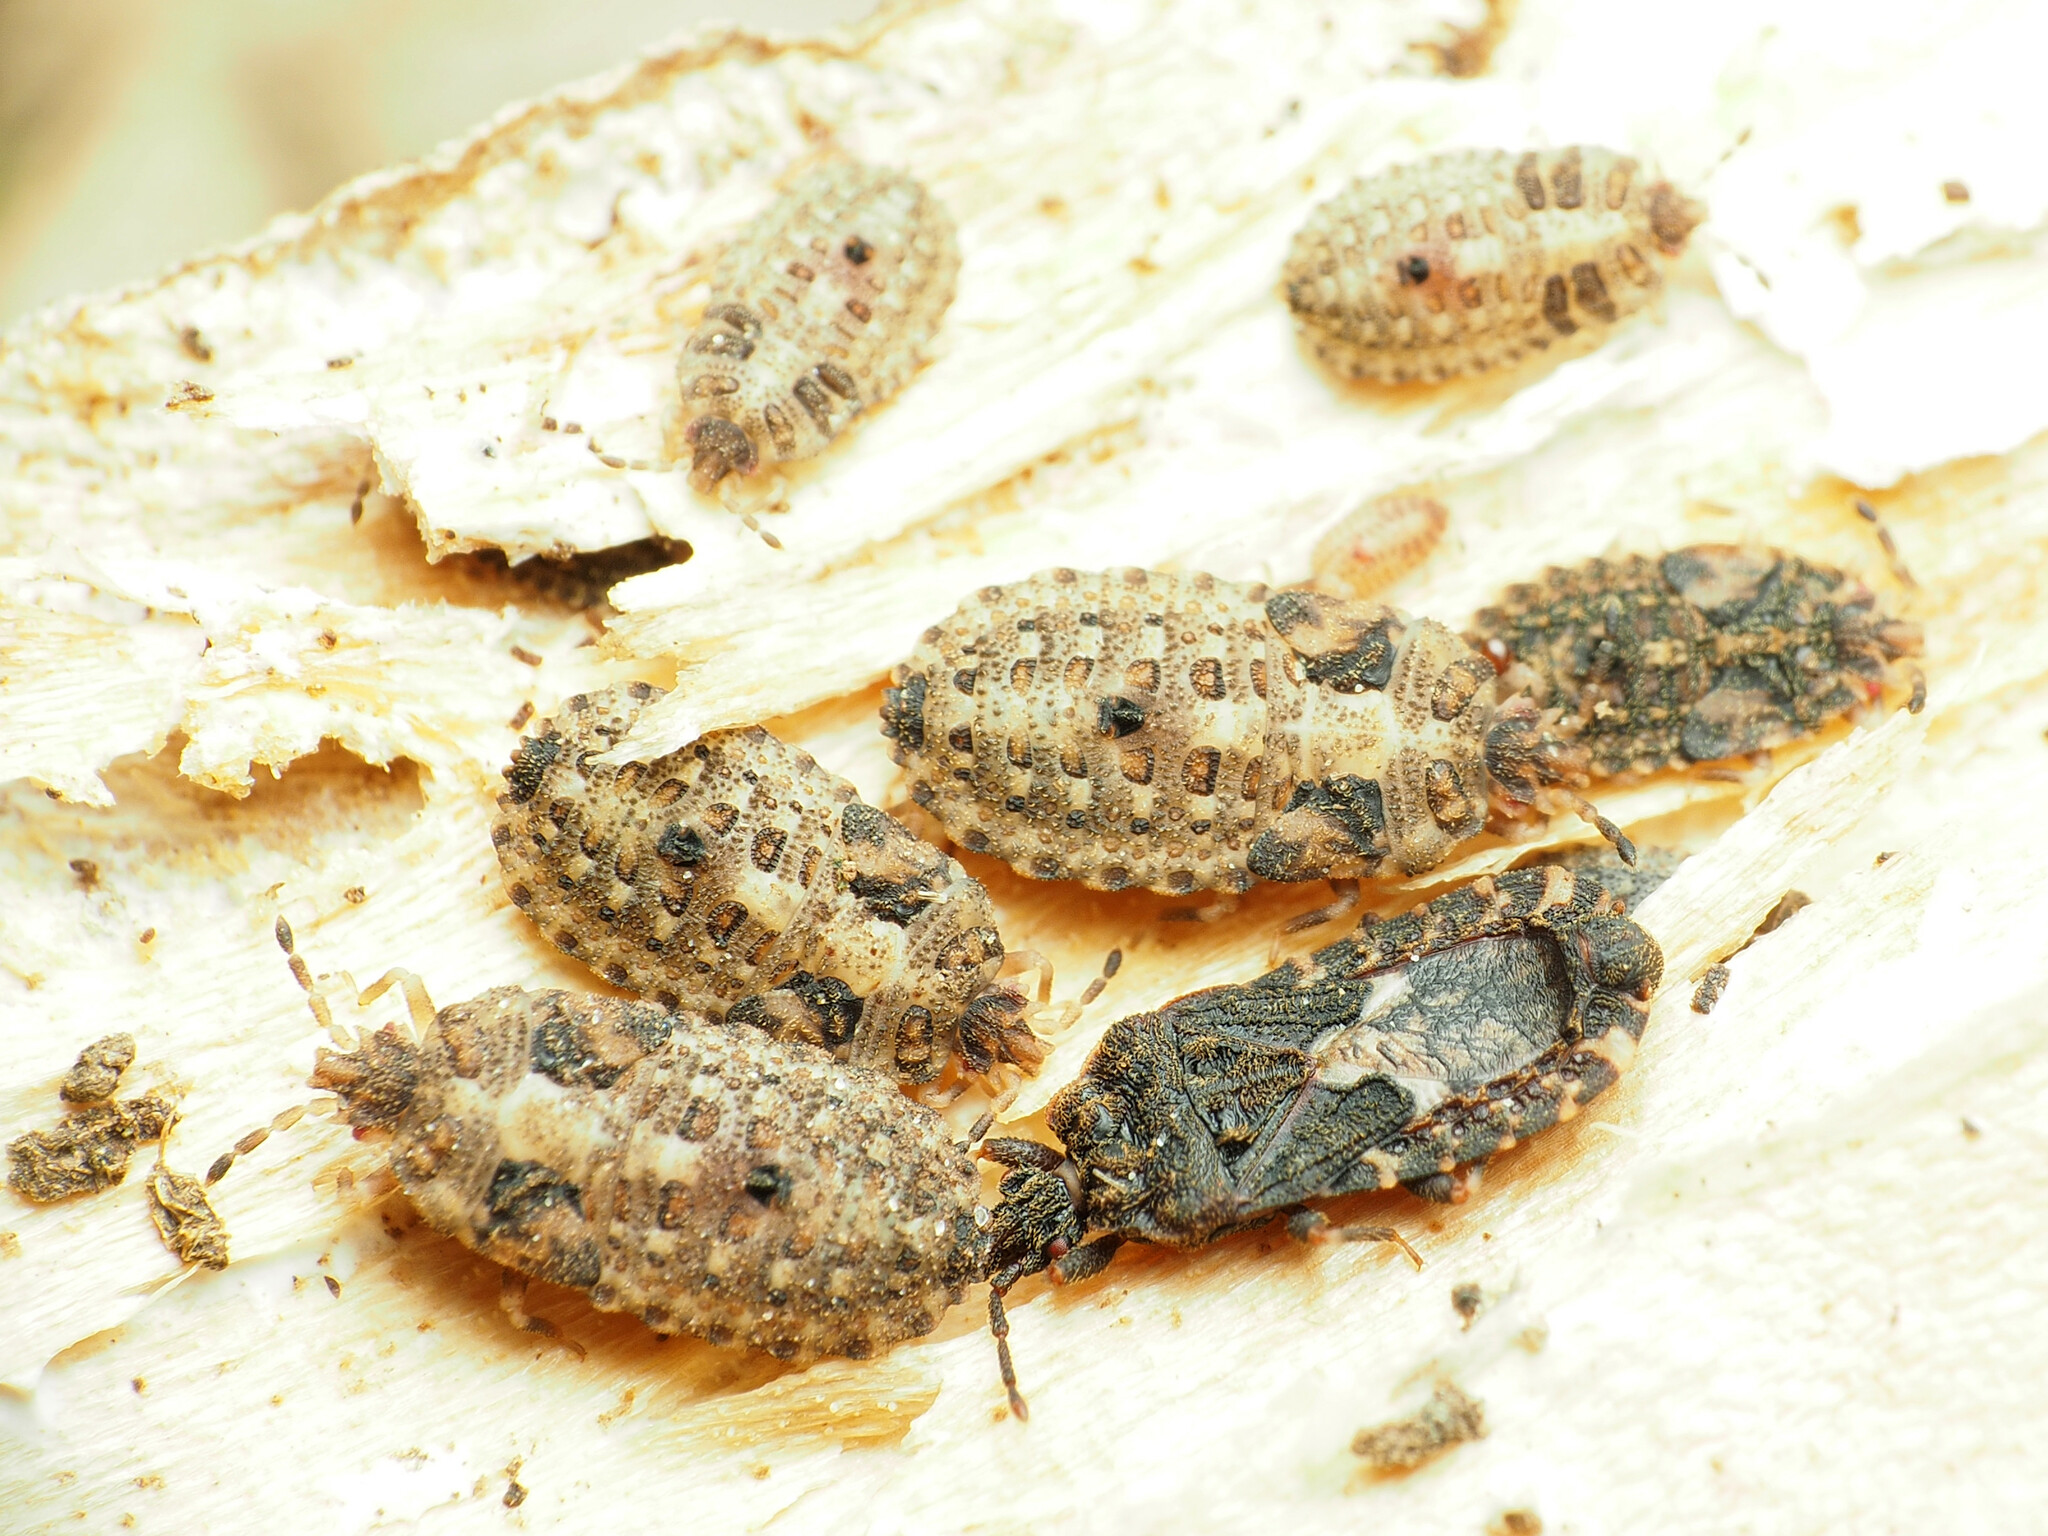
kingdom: Animalia
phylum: Arthropoda
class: Insecta
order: Hemiptera
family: Aradidae
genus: Mezira
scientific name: Mezira
